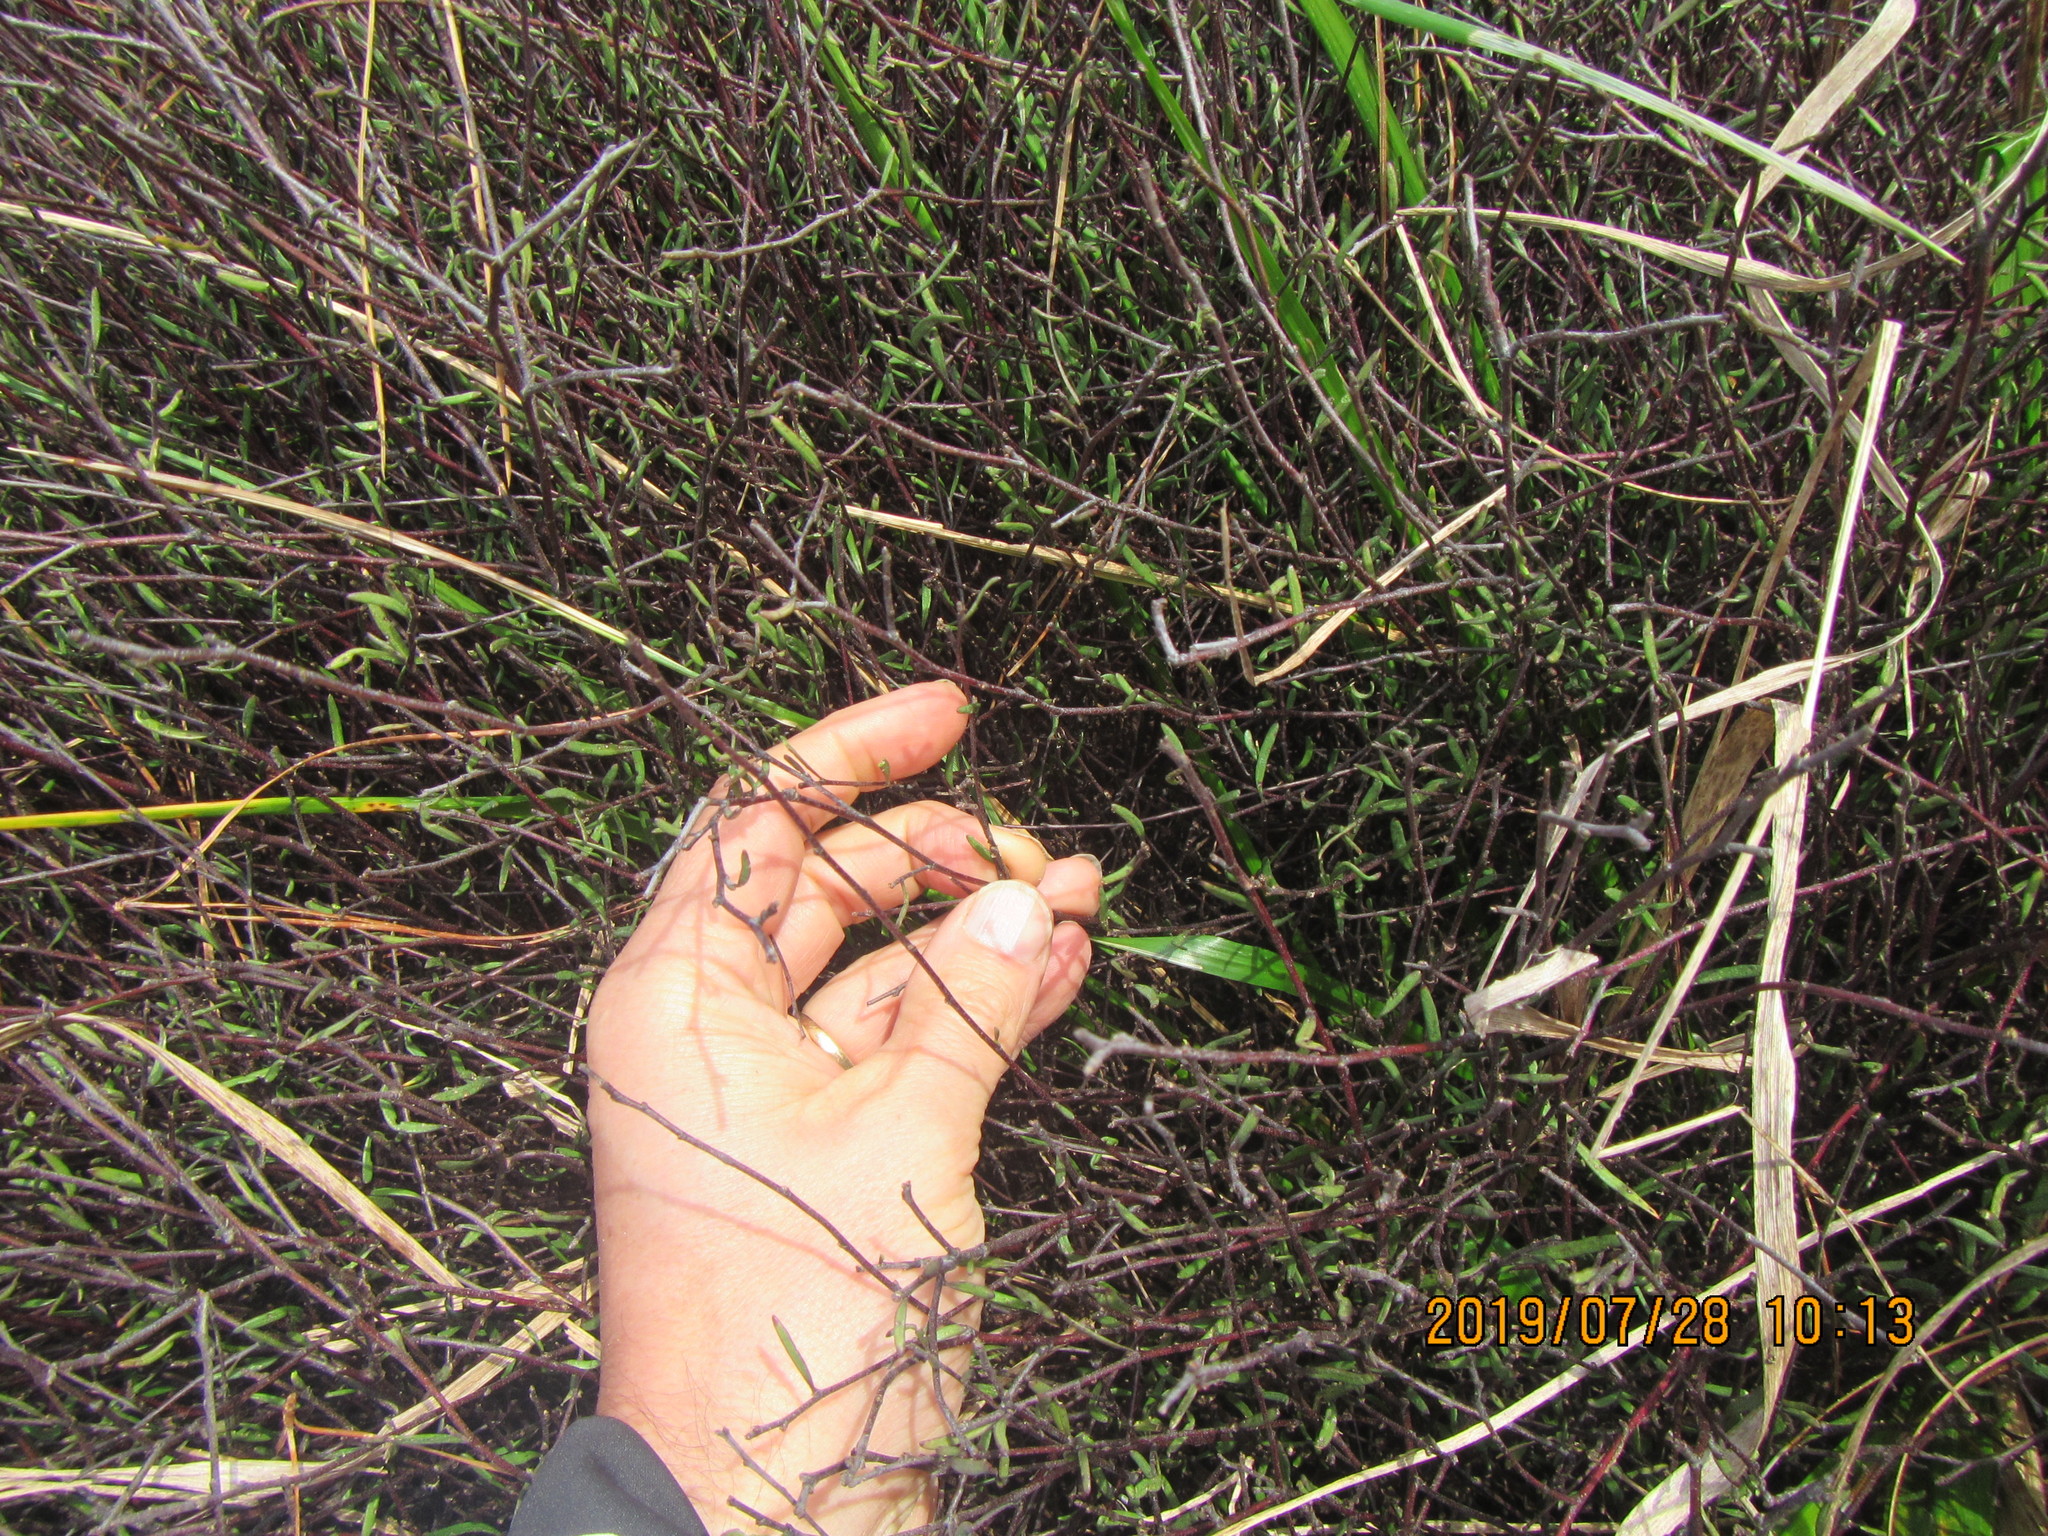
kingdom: Plantae
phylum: Tracheophyta
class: Magnoliopsida
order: Malvales
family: Malvaceae
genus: Plagianthus
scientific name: Plagianthus divaricatus
